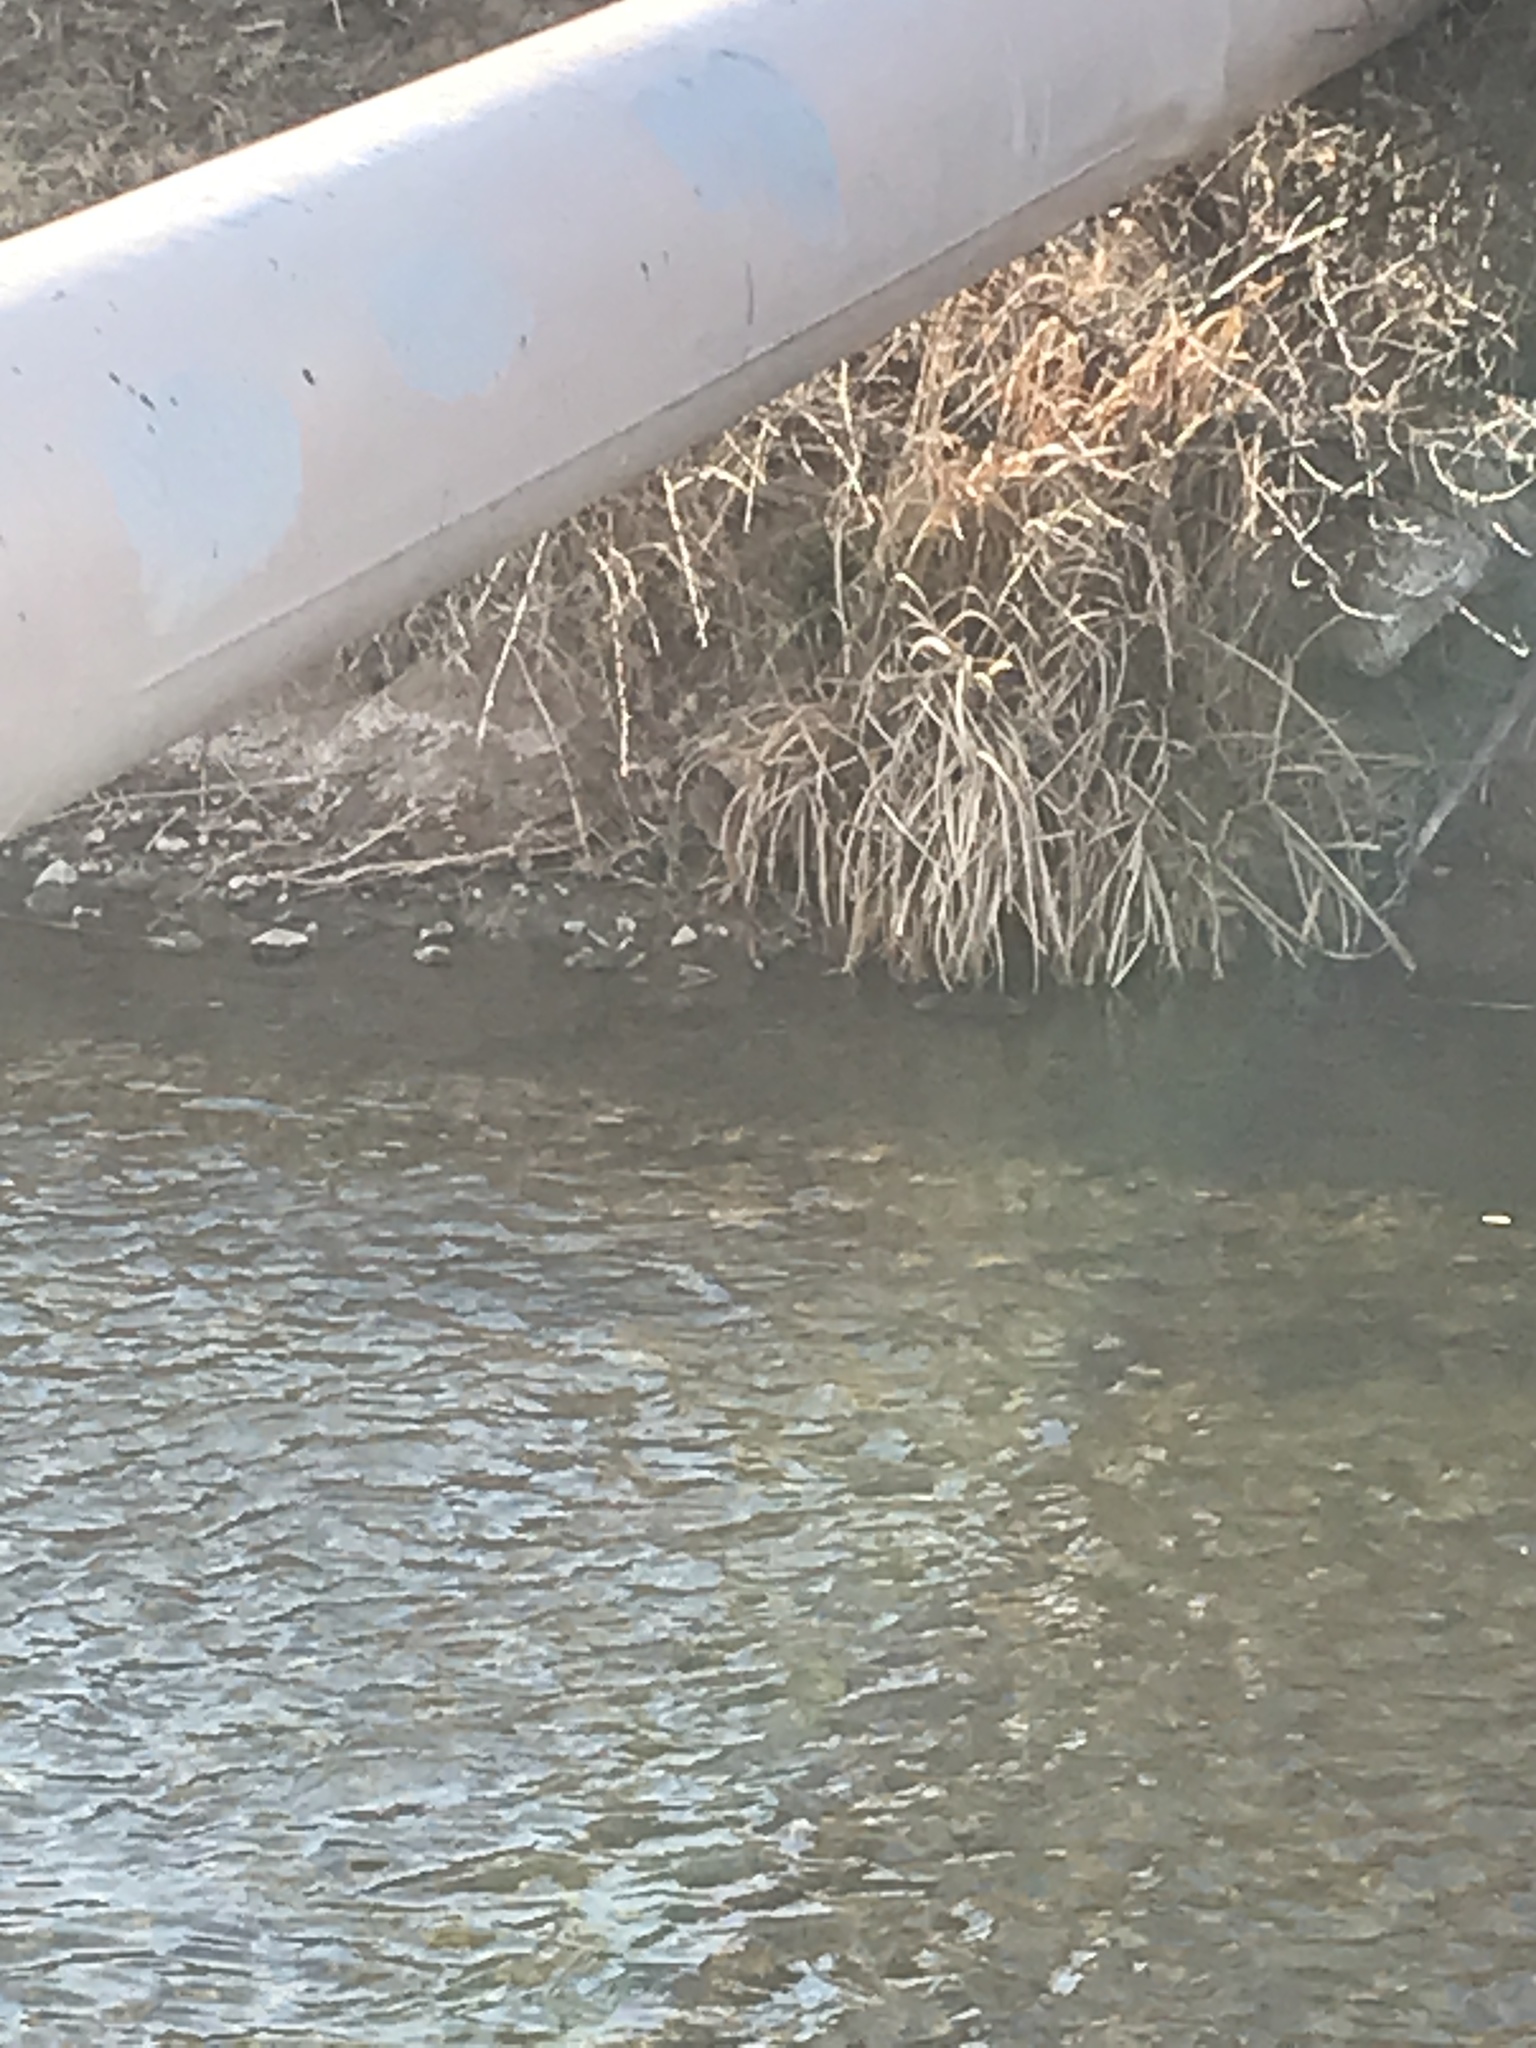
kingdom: Animalia
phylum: Chordata
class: Mammalia
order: Rodentia
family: Cricetidae
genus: Ondatra
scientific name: Ondatra zibethicus
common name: Muskrat
